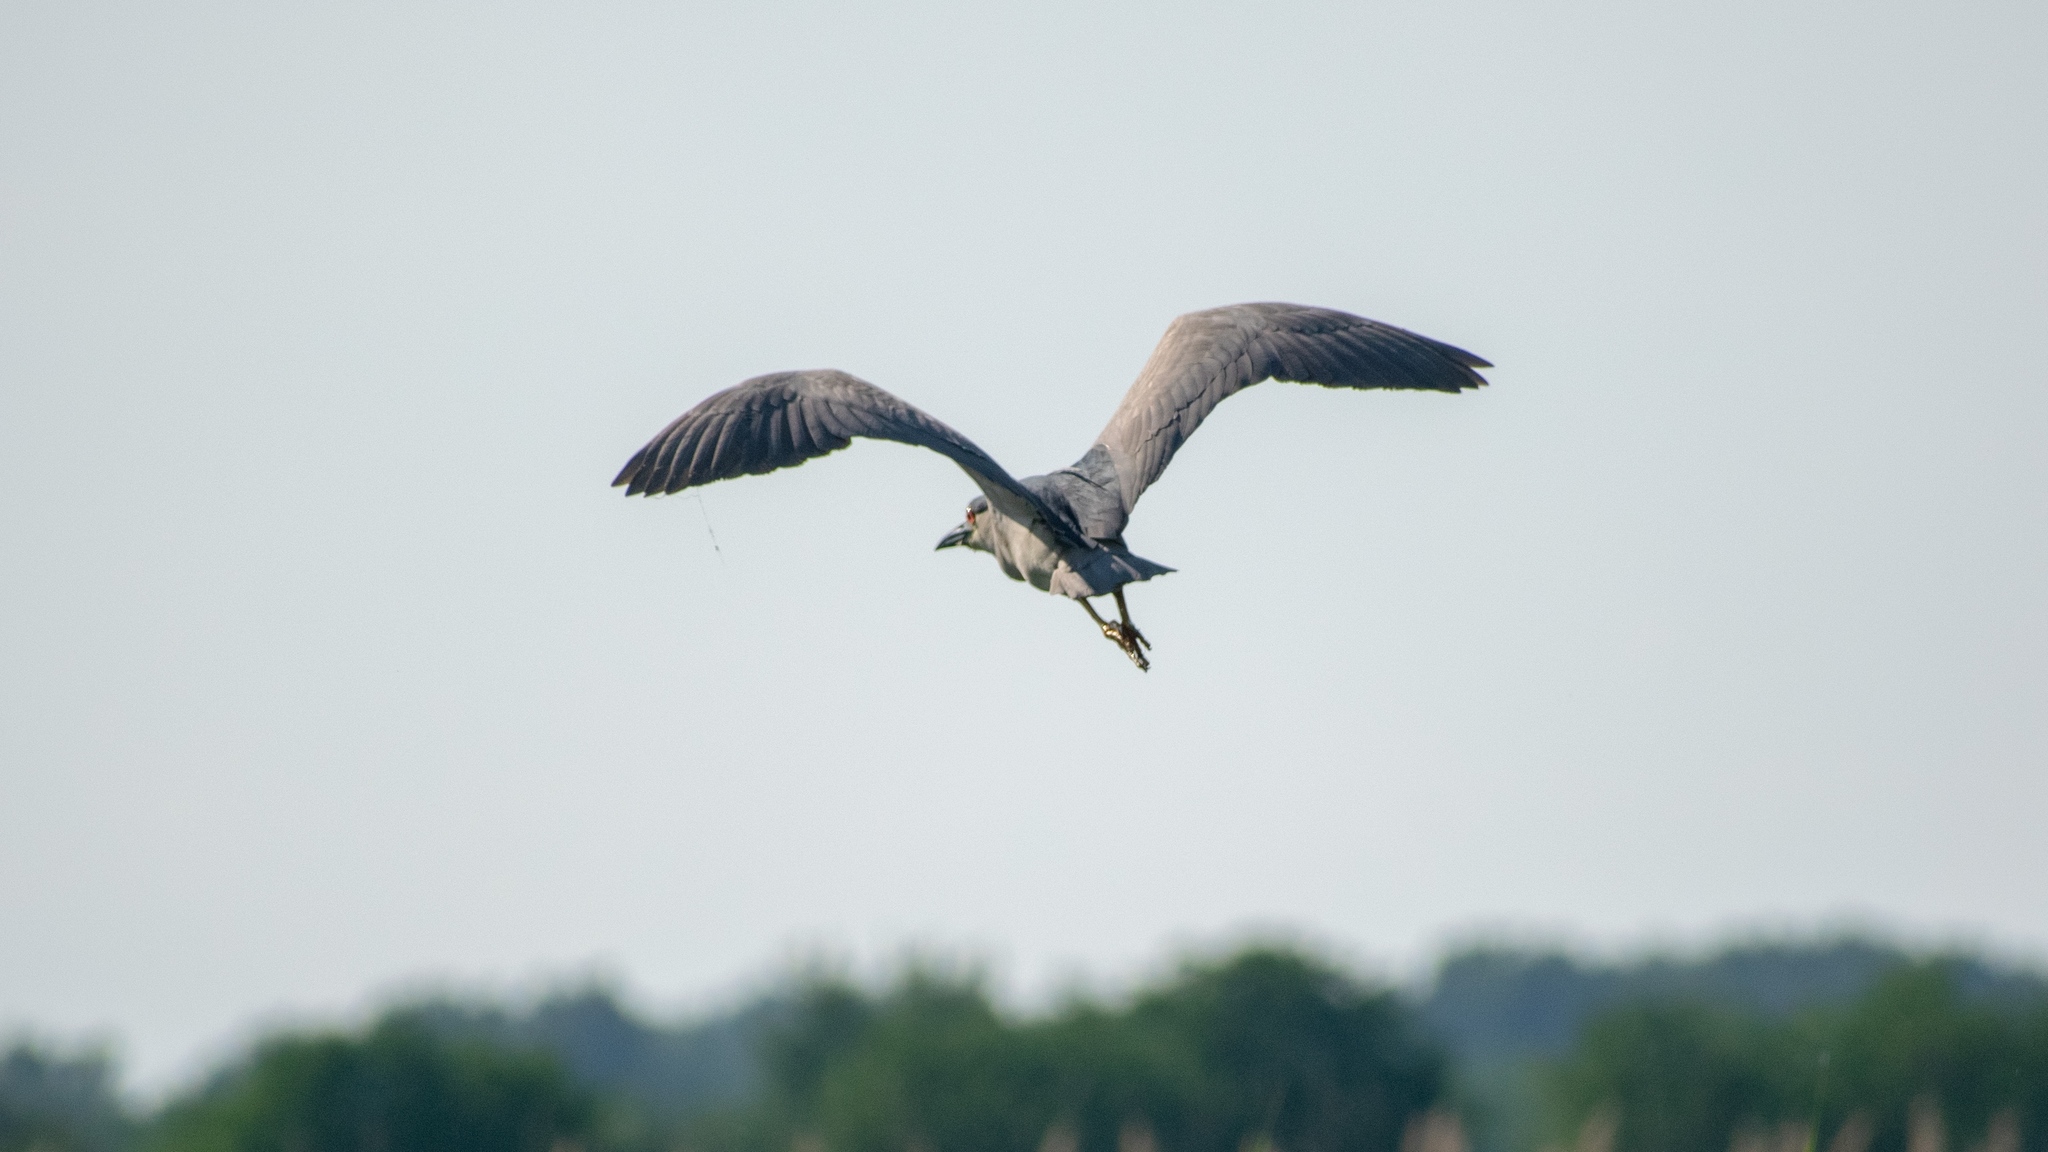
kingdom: Animalia
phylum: Chordata
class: Aves
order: Pelecaniformes
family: Ardeidae
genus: Nycticorax
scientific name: Nycticorax nycticorax
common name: Black-crowned night heron
